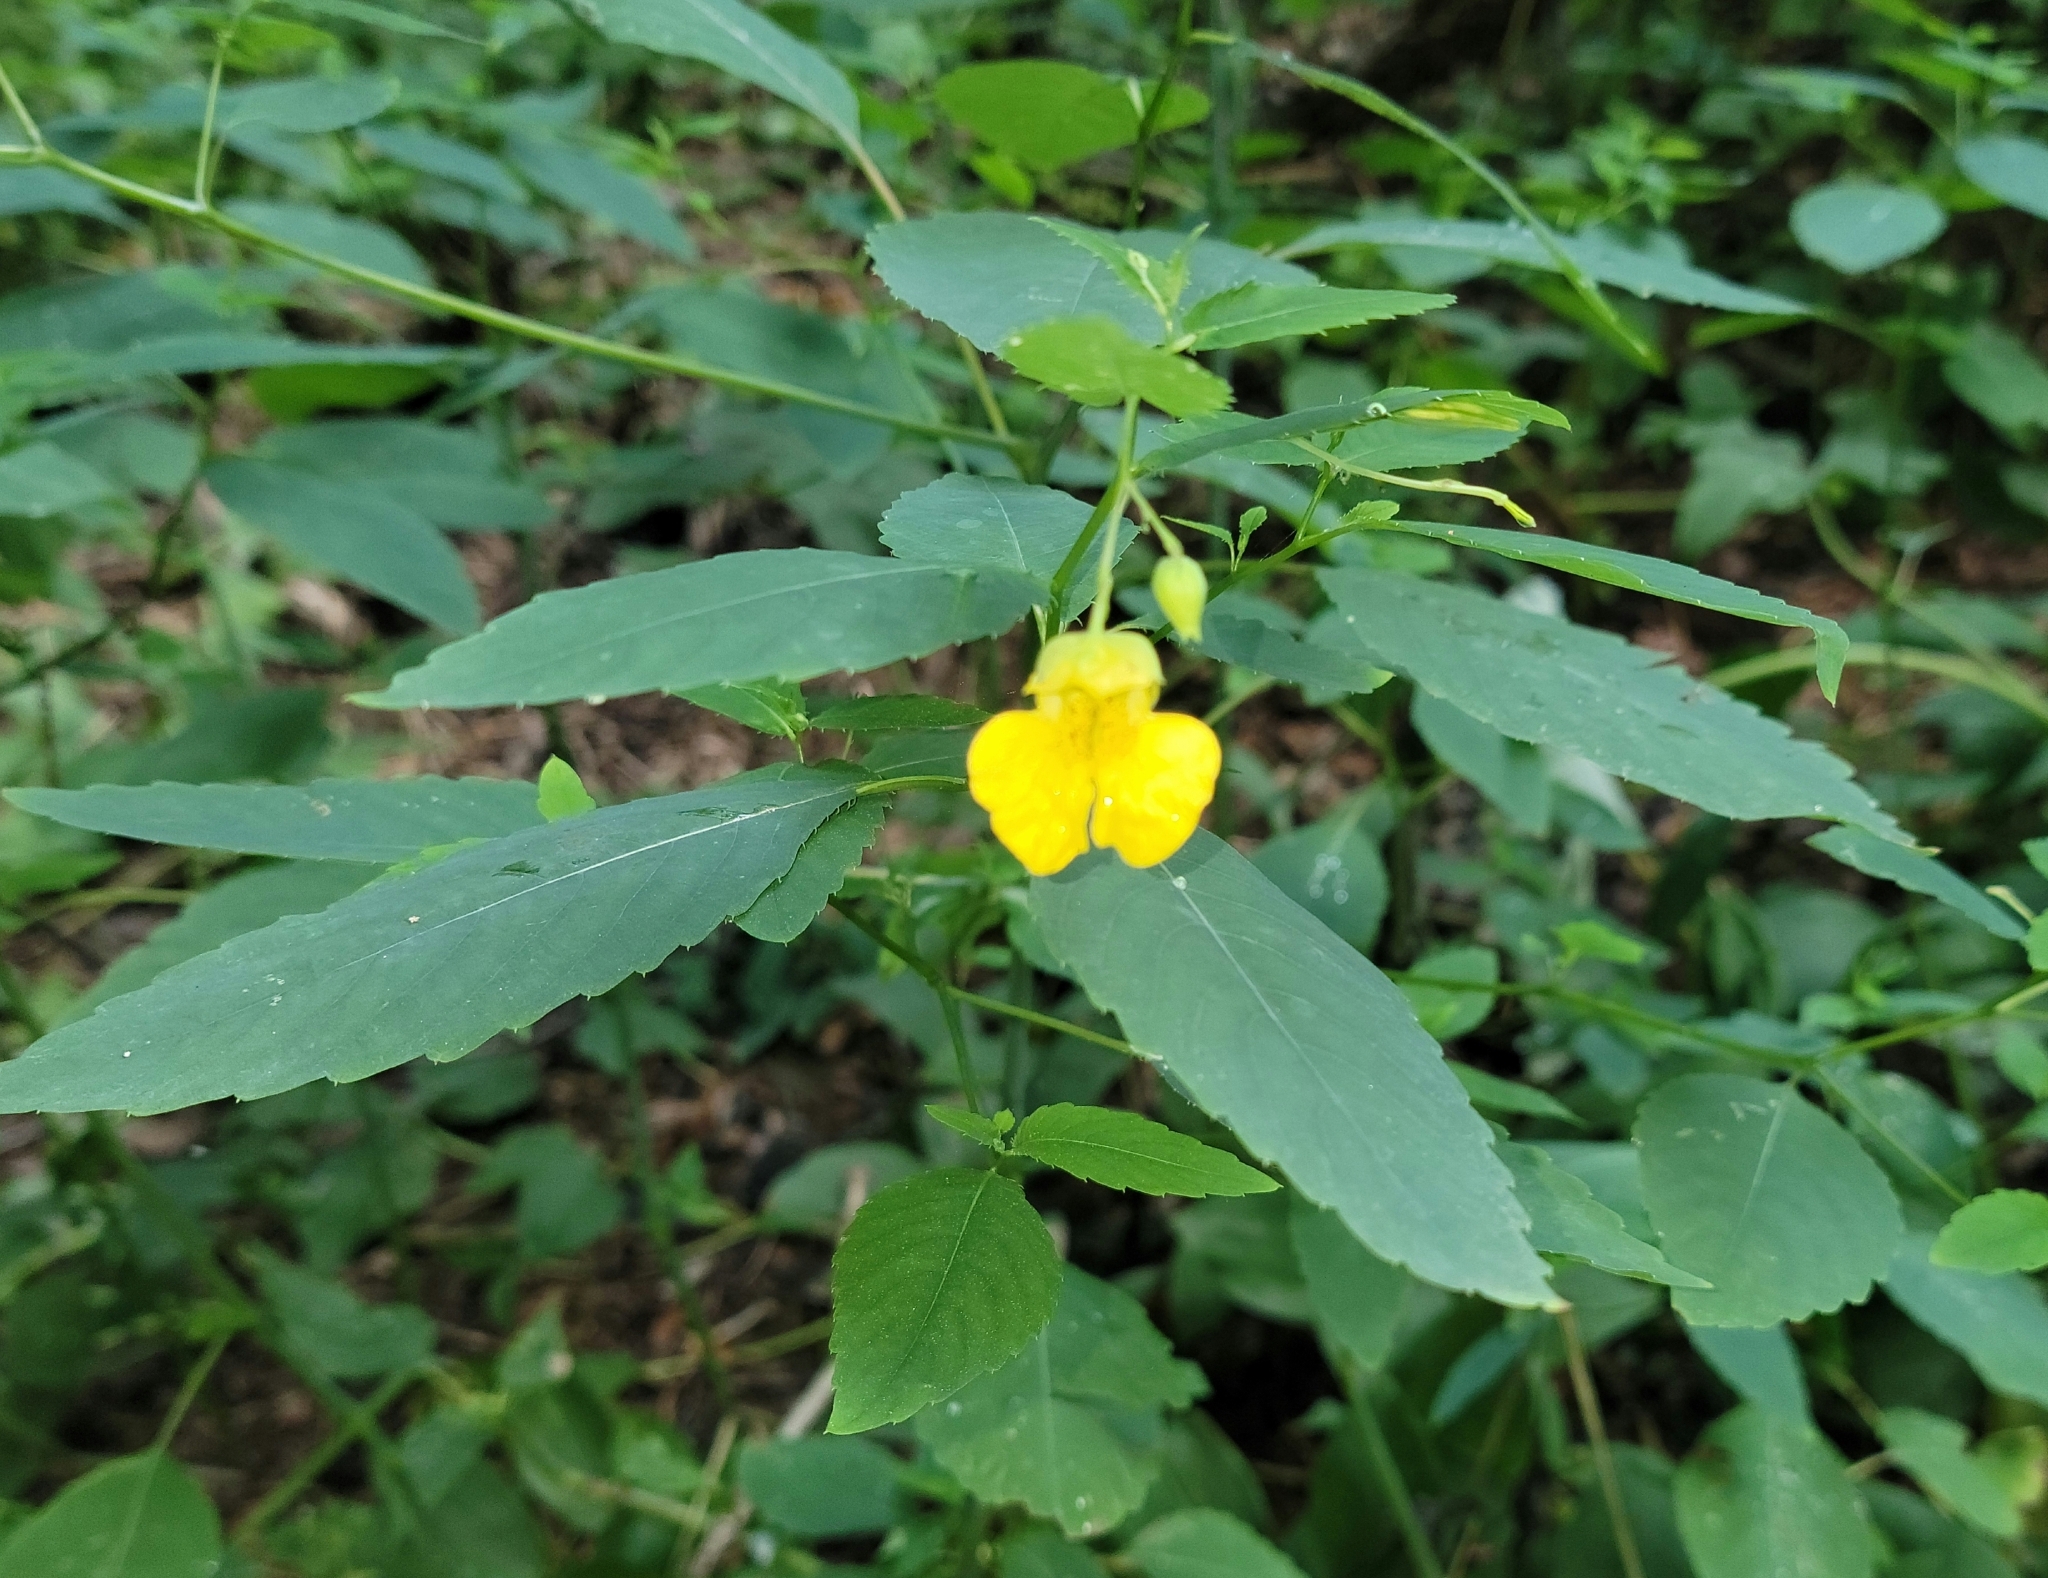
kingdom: Plantae
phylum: Tracheophyta
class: Magnoliopsida
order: Ericales
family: Balsaminaceae
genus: Impatiens
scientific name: Impatiens pallida
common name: Pale snapweed
